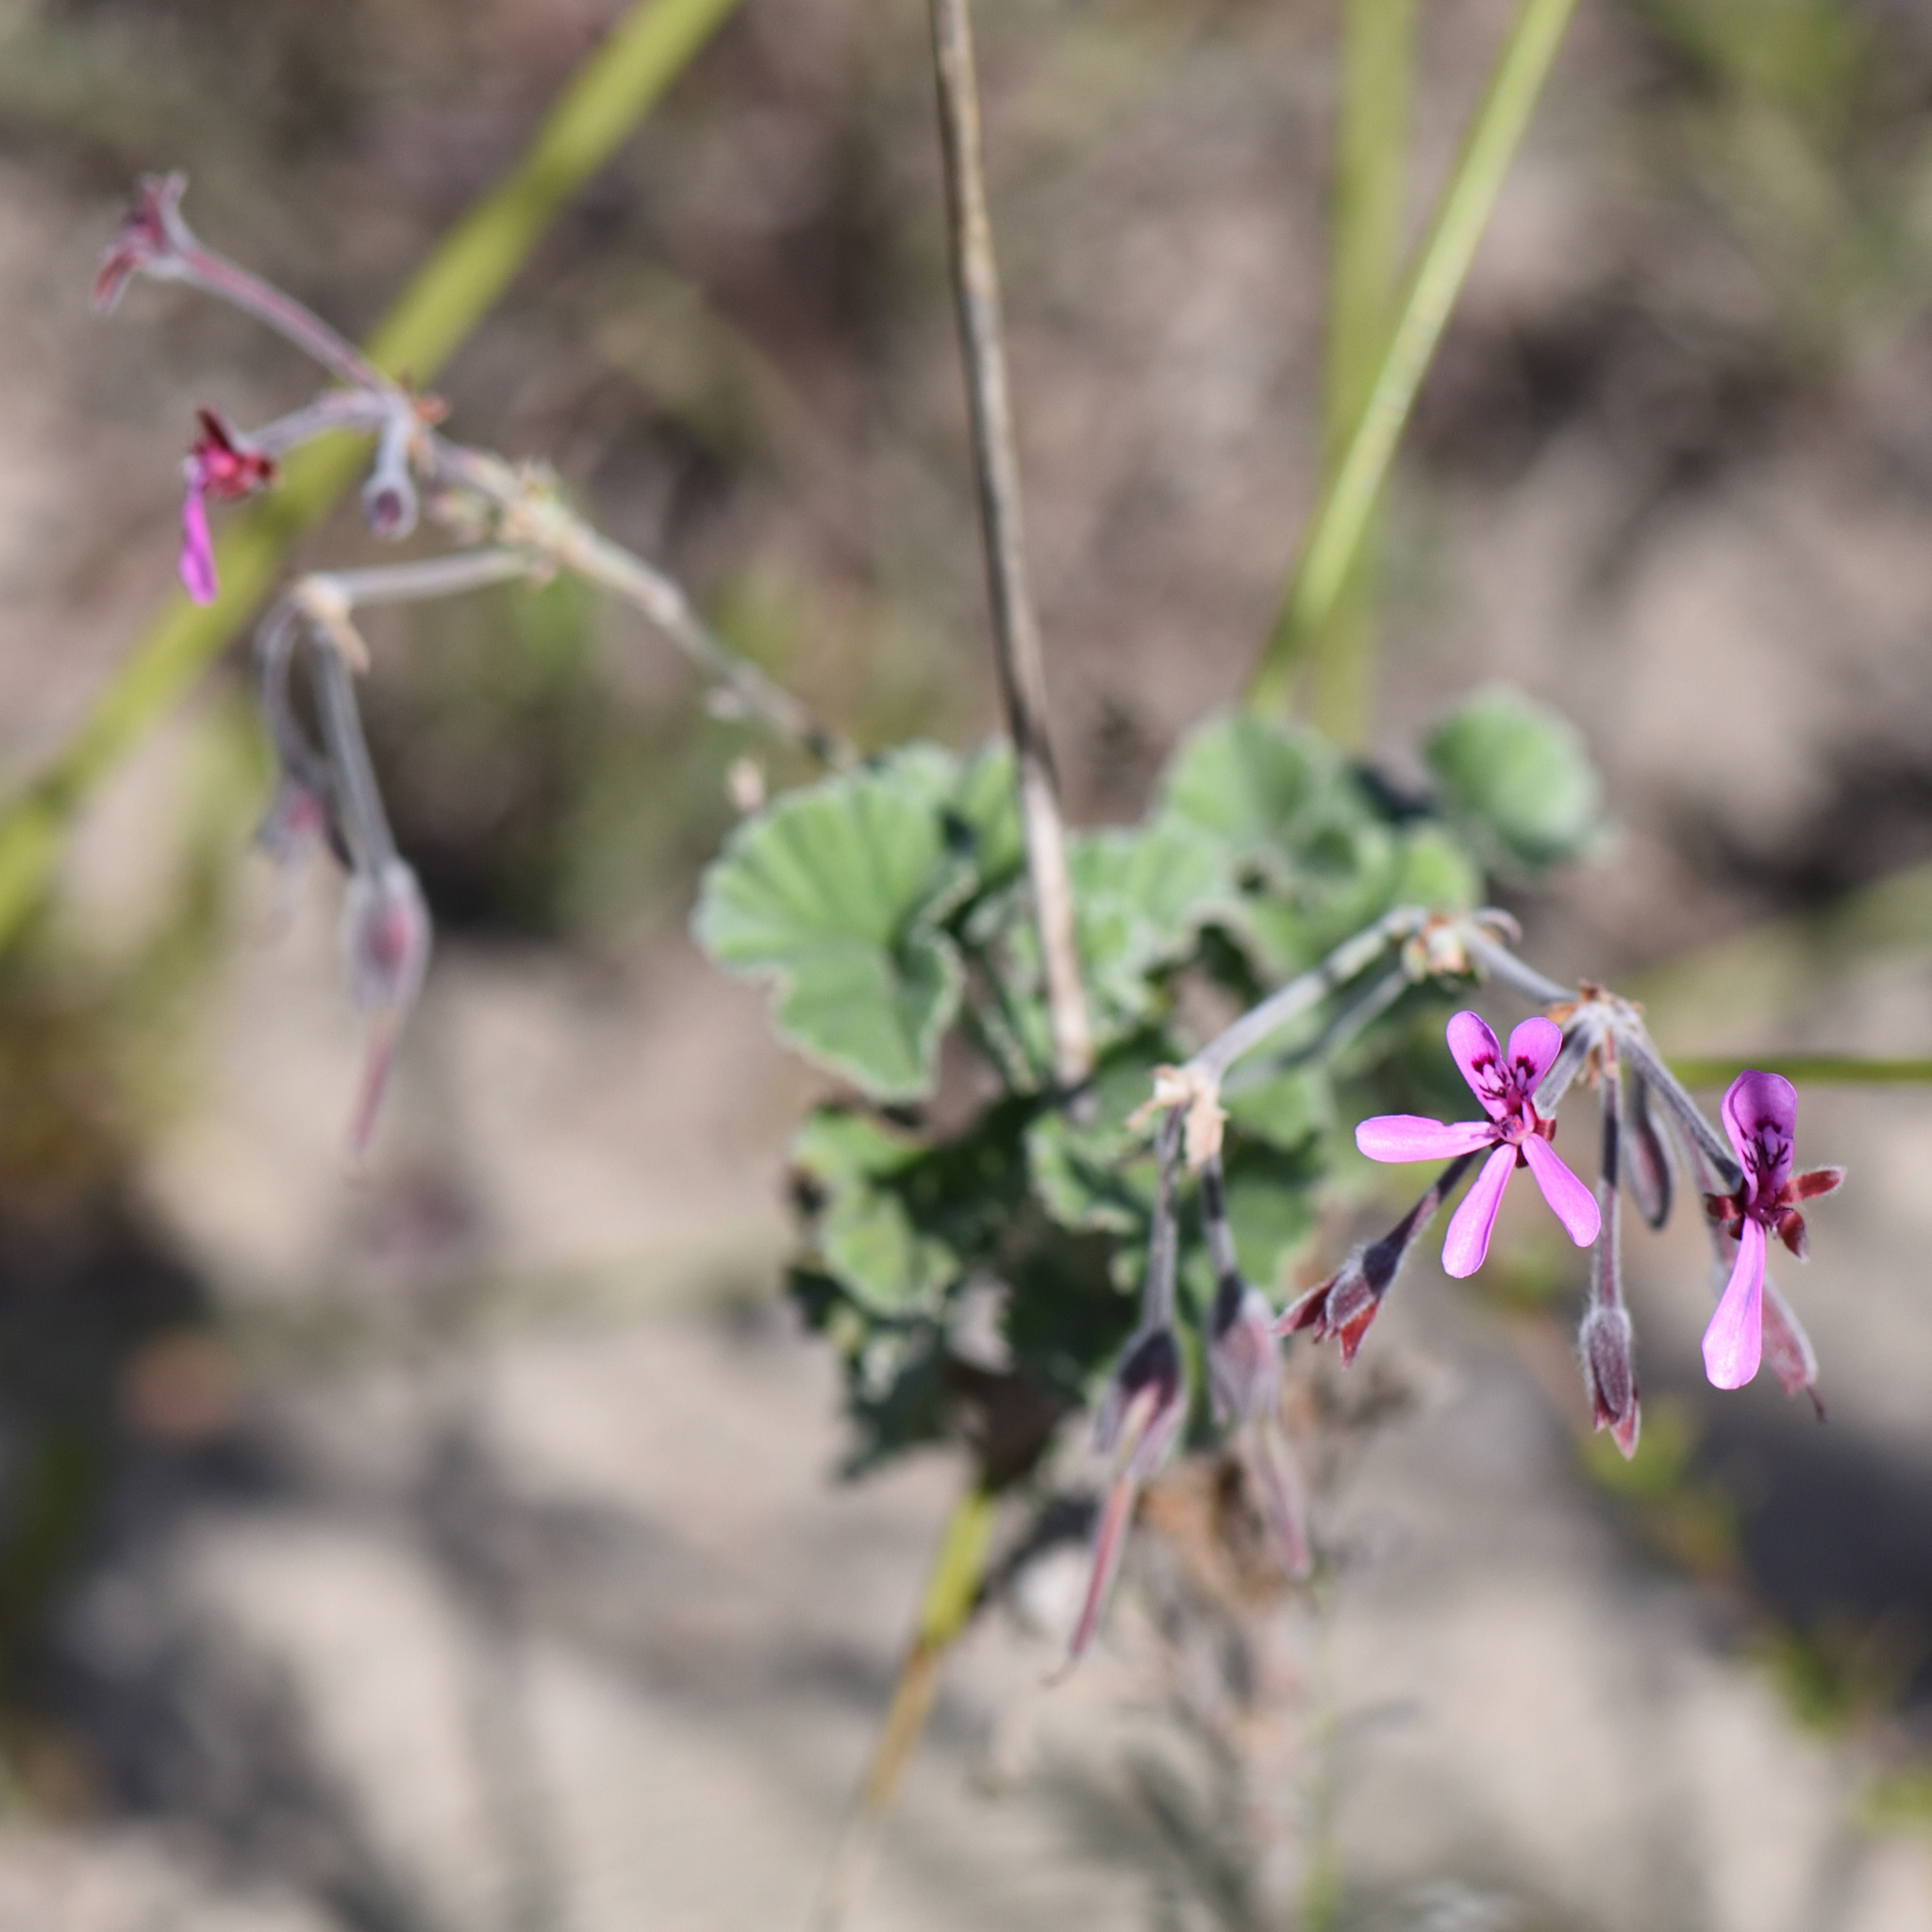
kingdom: Plantae
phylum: Tracheophyta
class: Magnoliopsida
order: Geraniales
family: Geraniaceae
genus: Pelargonium
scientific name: Pelargonium reniforme
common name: Kidney-leaf pelargonium
